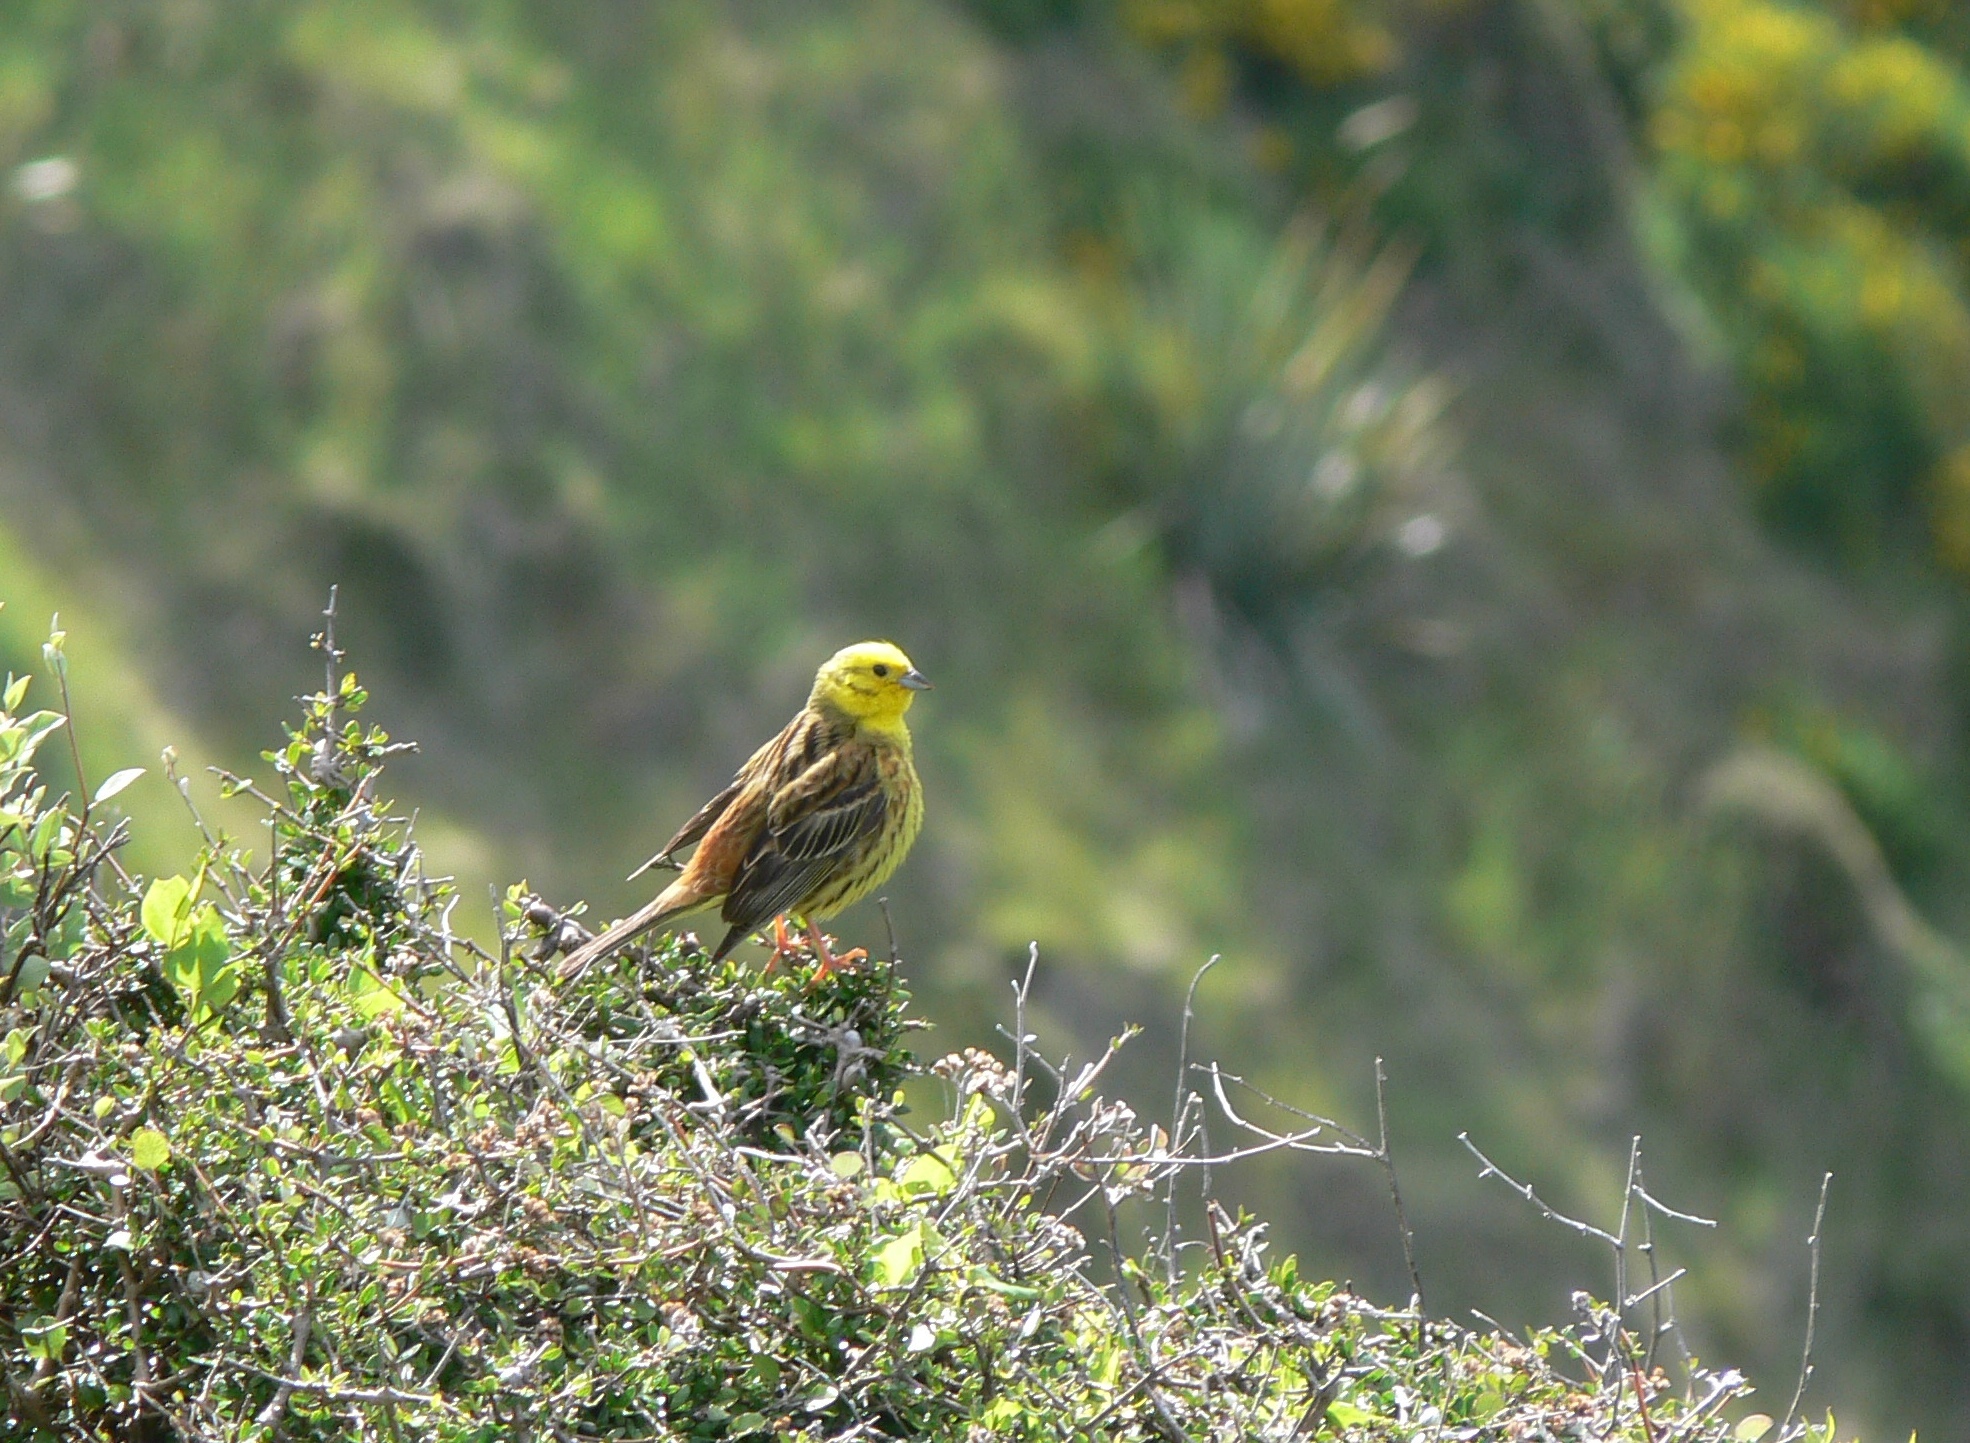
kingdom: Animalia
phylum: Chordata
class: Aves
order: Passeriformes
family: Emberizidae
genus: Emberiza
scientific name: Emberiza citrinella
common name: Yellowhammer
